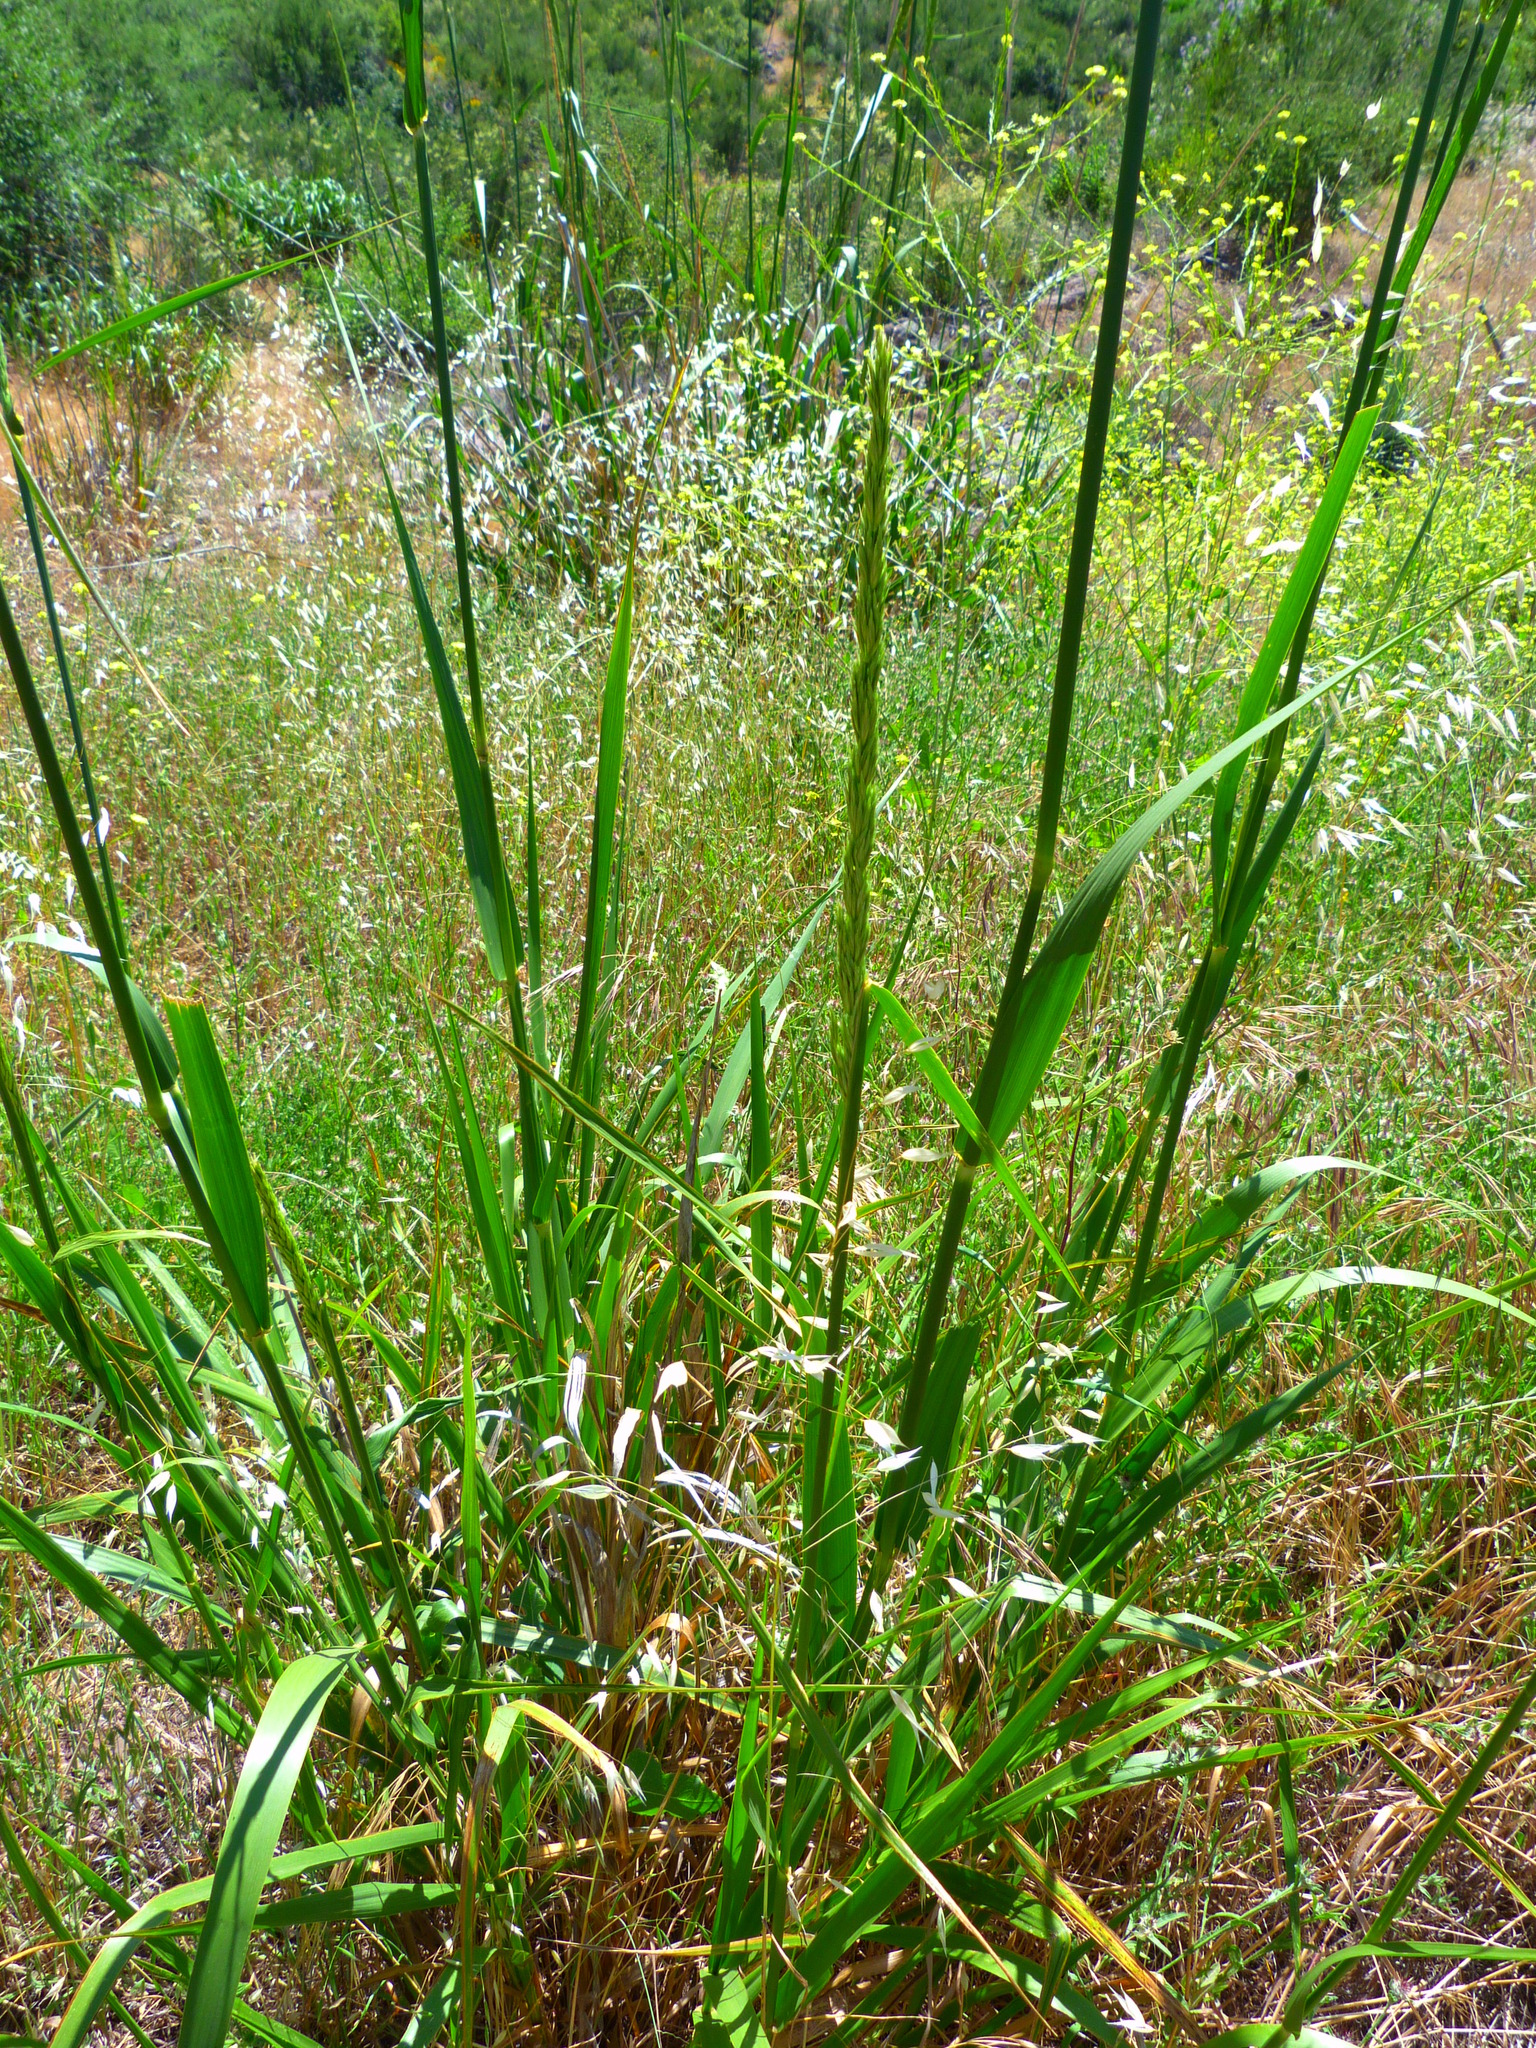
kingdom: Plantae
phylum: Tracheophyta
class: Liliopsida
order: Poales
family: Poaceae
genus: Leymus
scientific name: Leymus condensatus
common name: Giant wild rye
